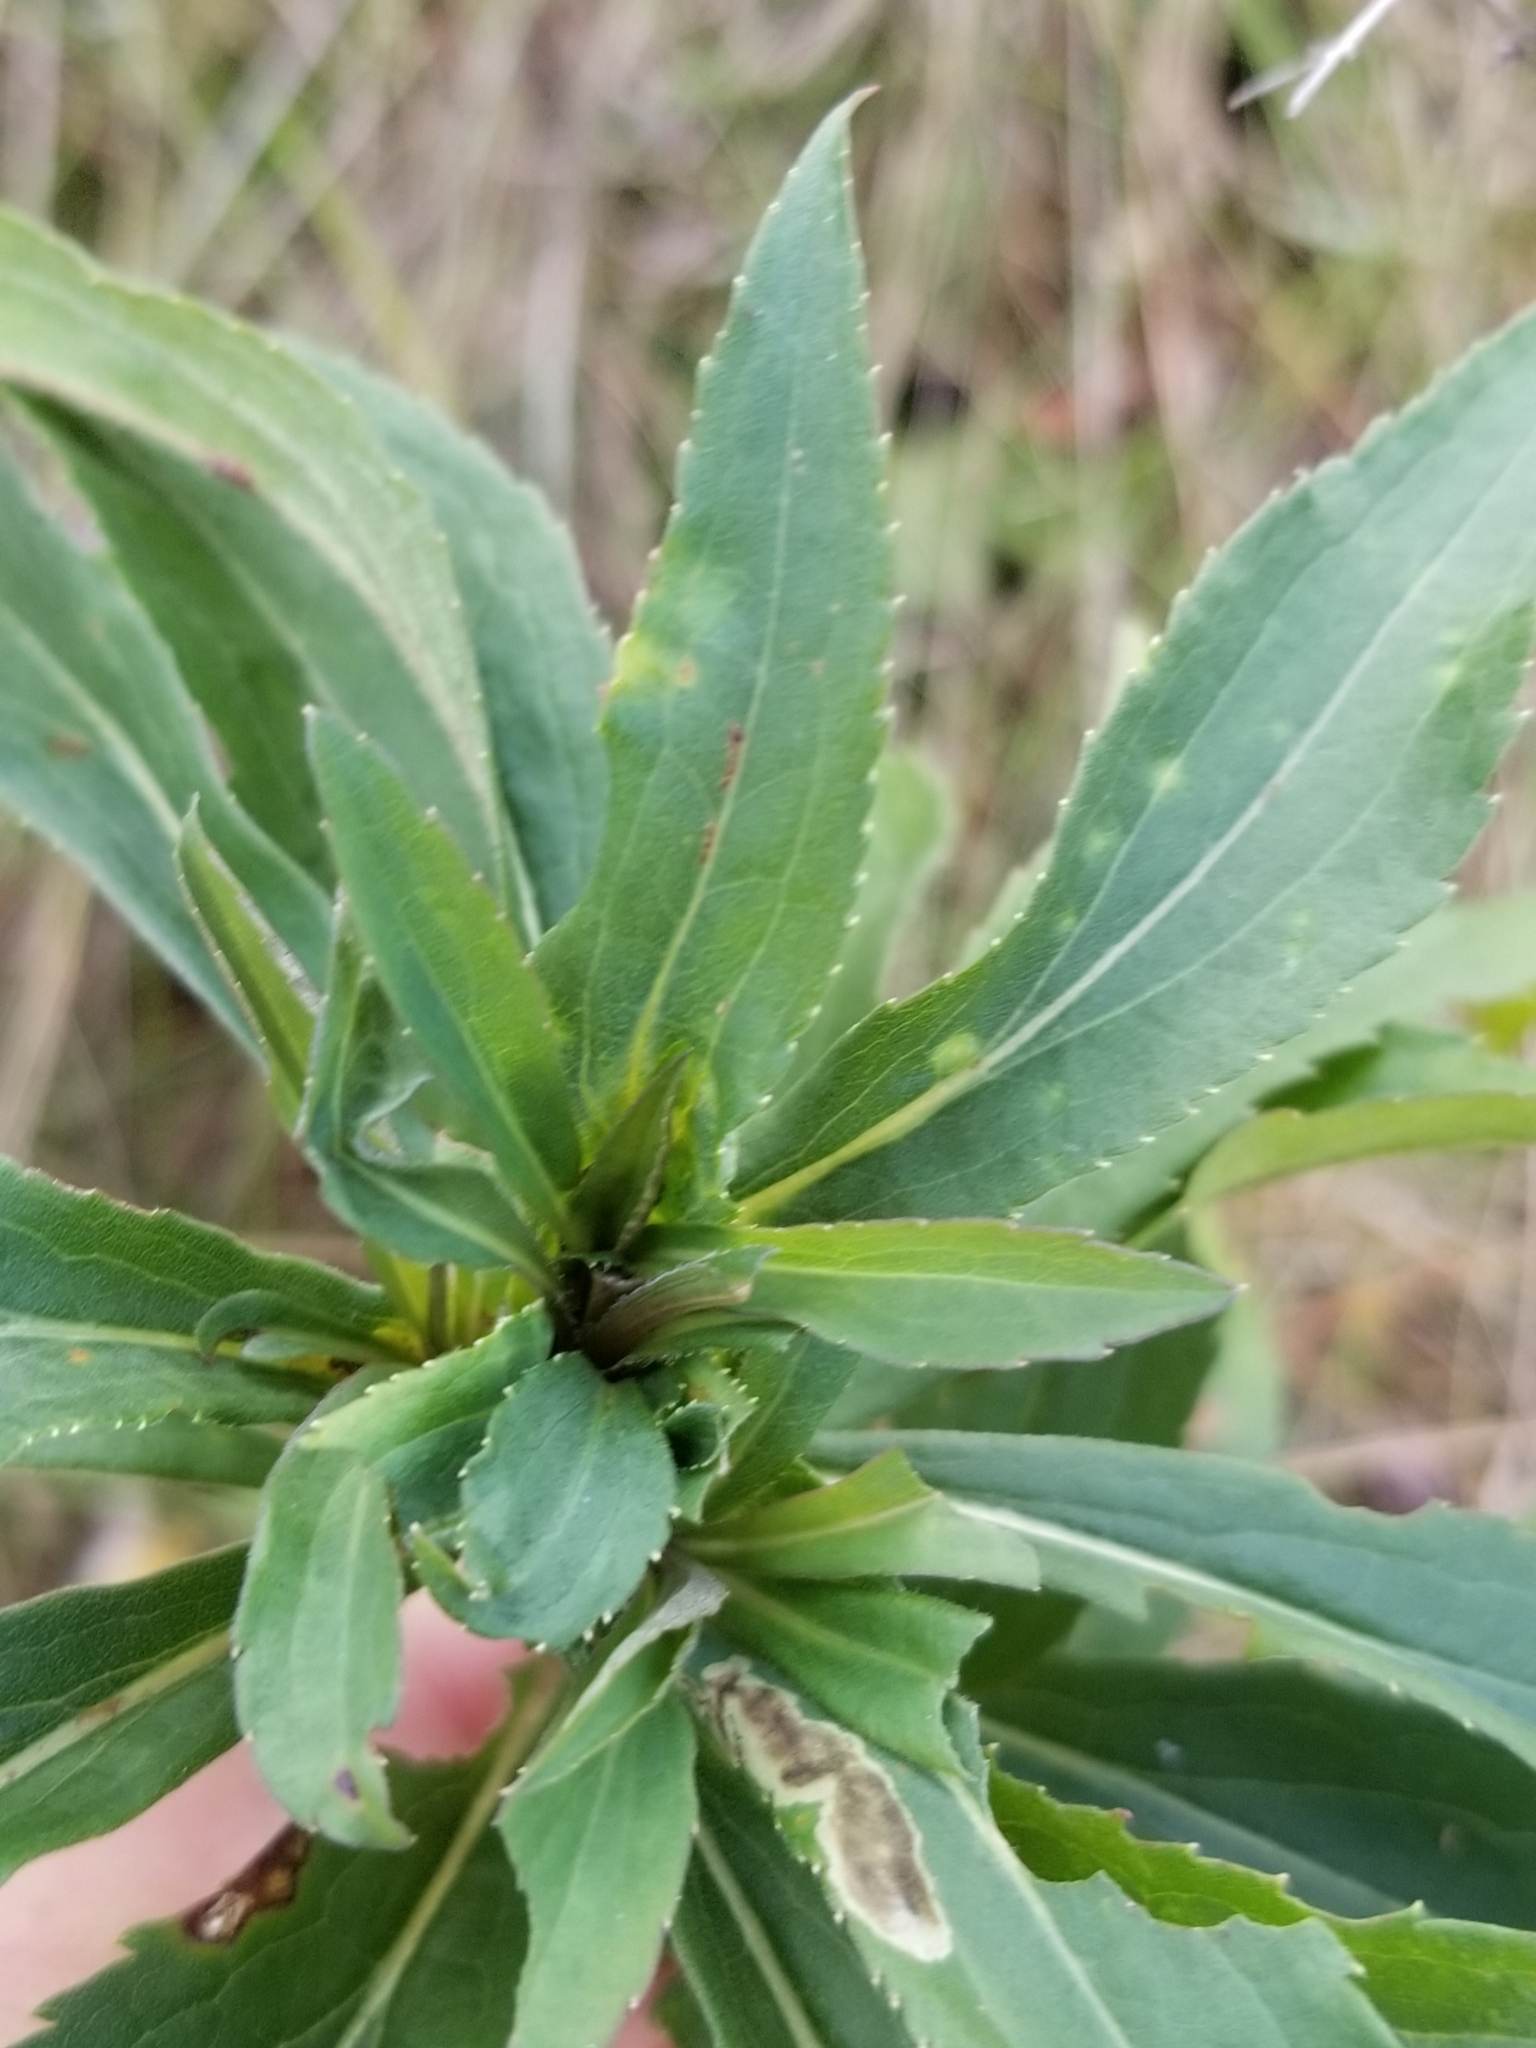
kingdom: Animalia
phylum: Arthropoda
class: Insecta
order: Diptera
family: Cecidomyiidae
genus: Dasineura
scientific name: Dasineura folliculi
